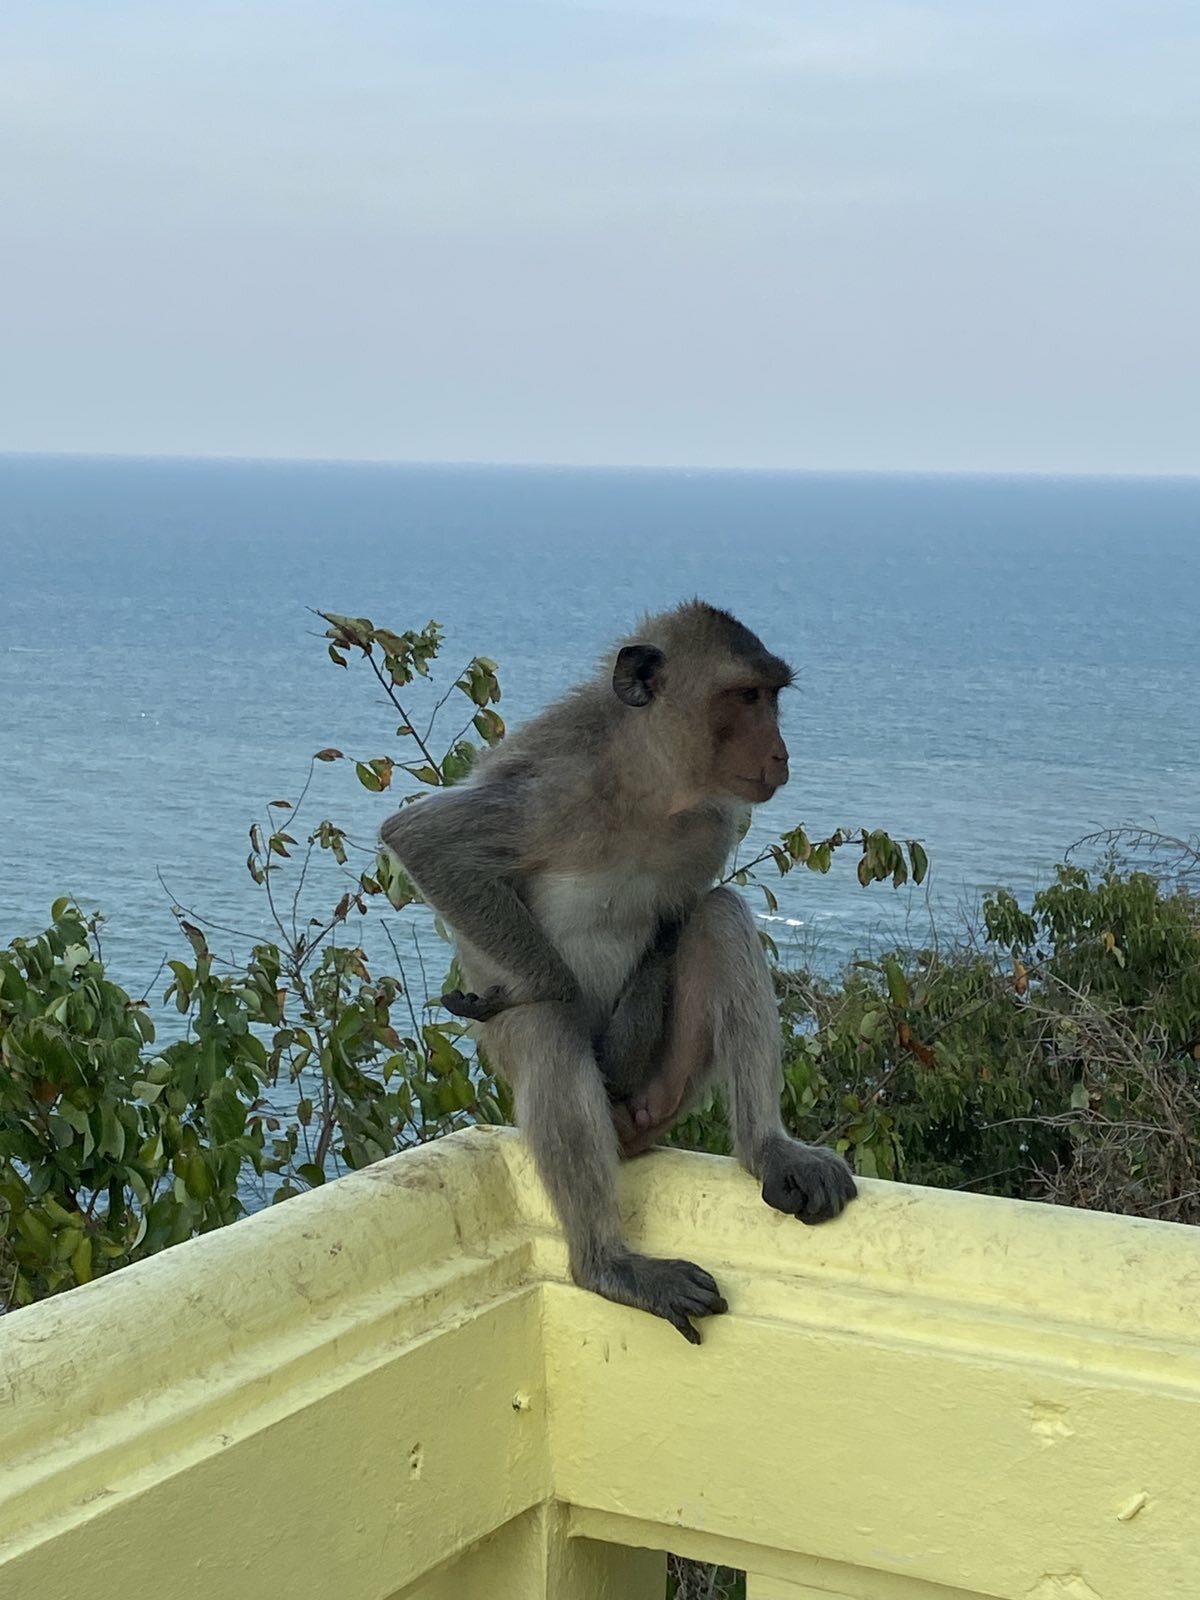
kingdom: Animalia
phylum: Chordata
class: Mammalia
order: Primates
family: Cercopithecidae
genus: Macaca
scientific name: Macaca fascicularis
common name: Crab-eating macaque
